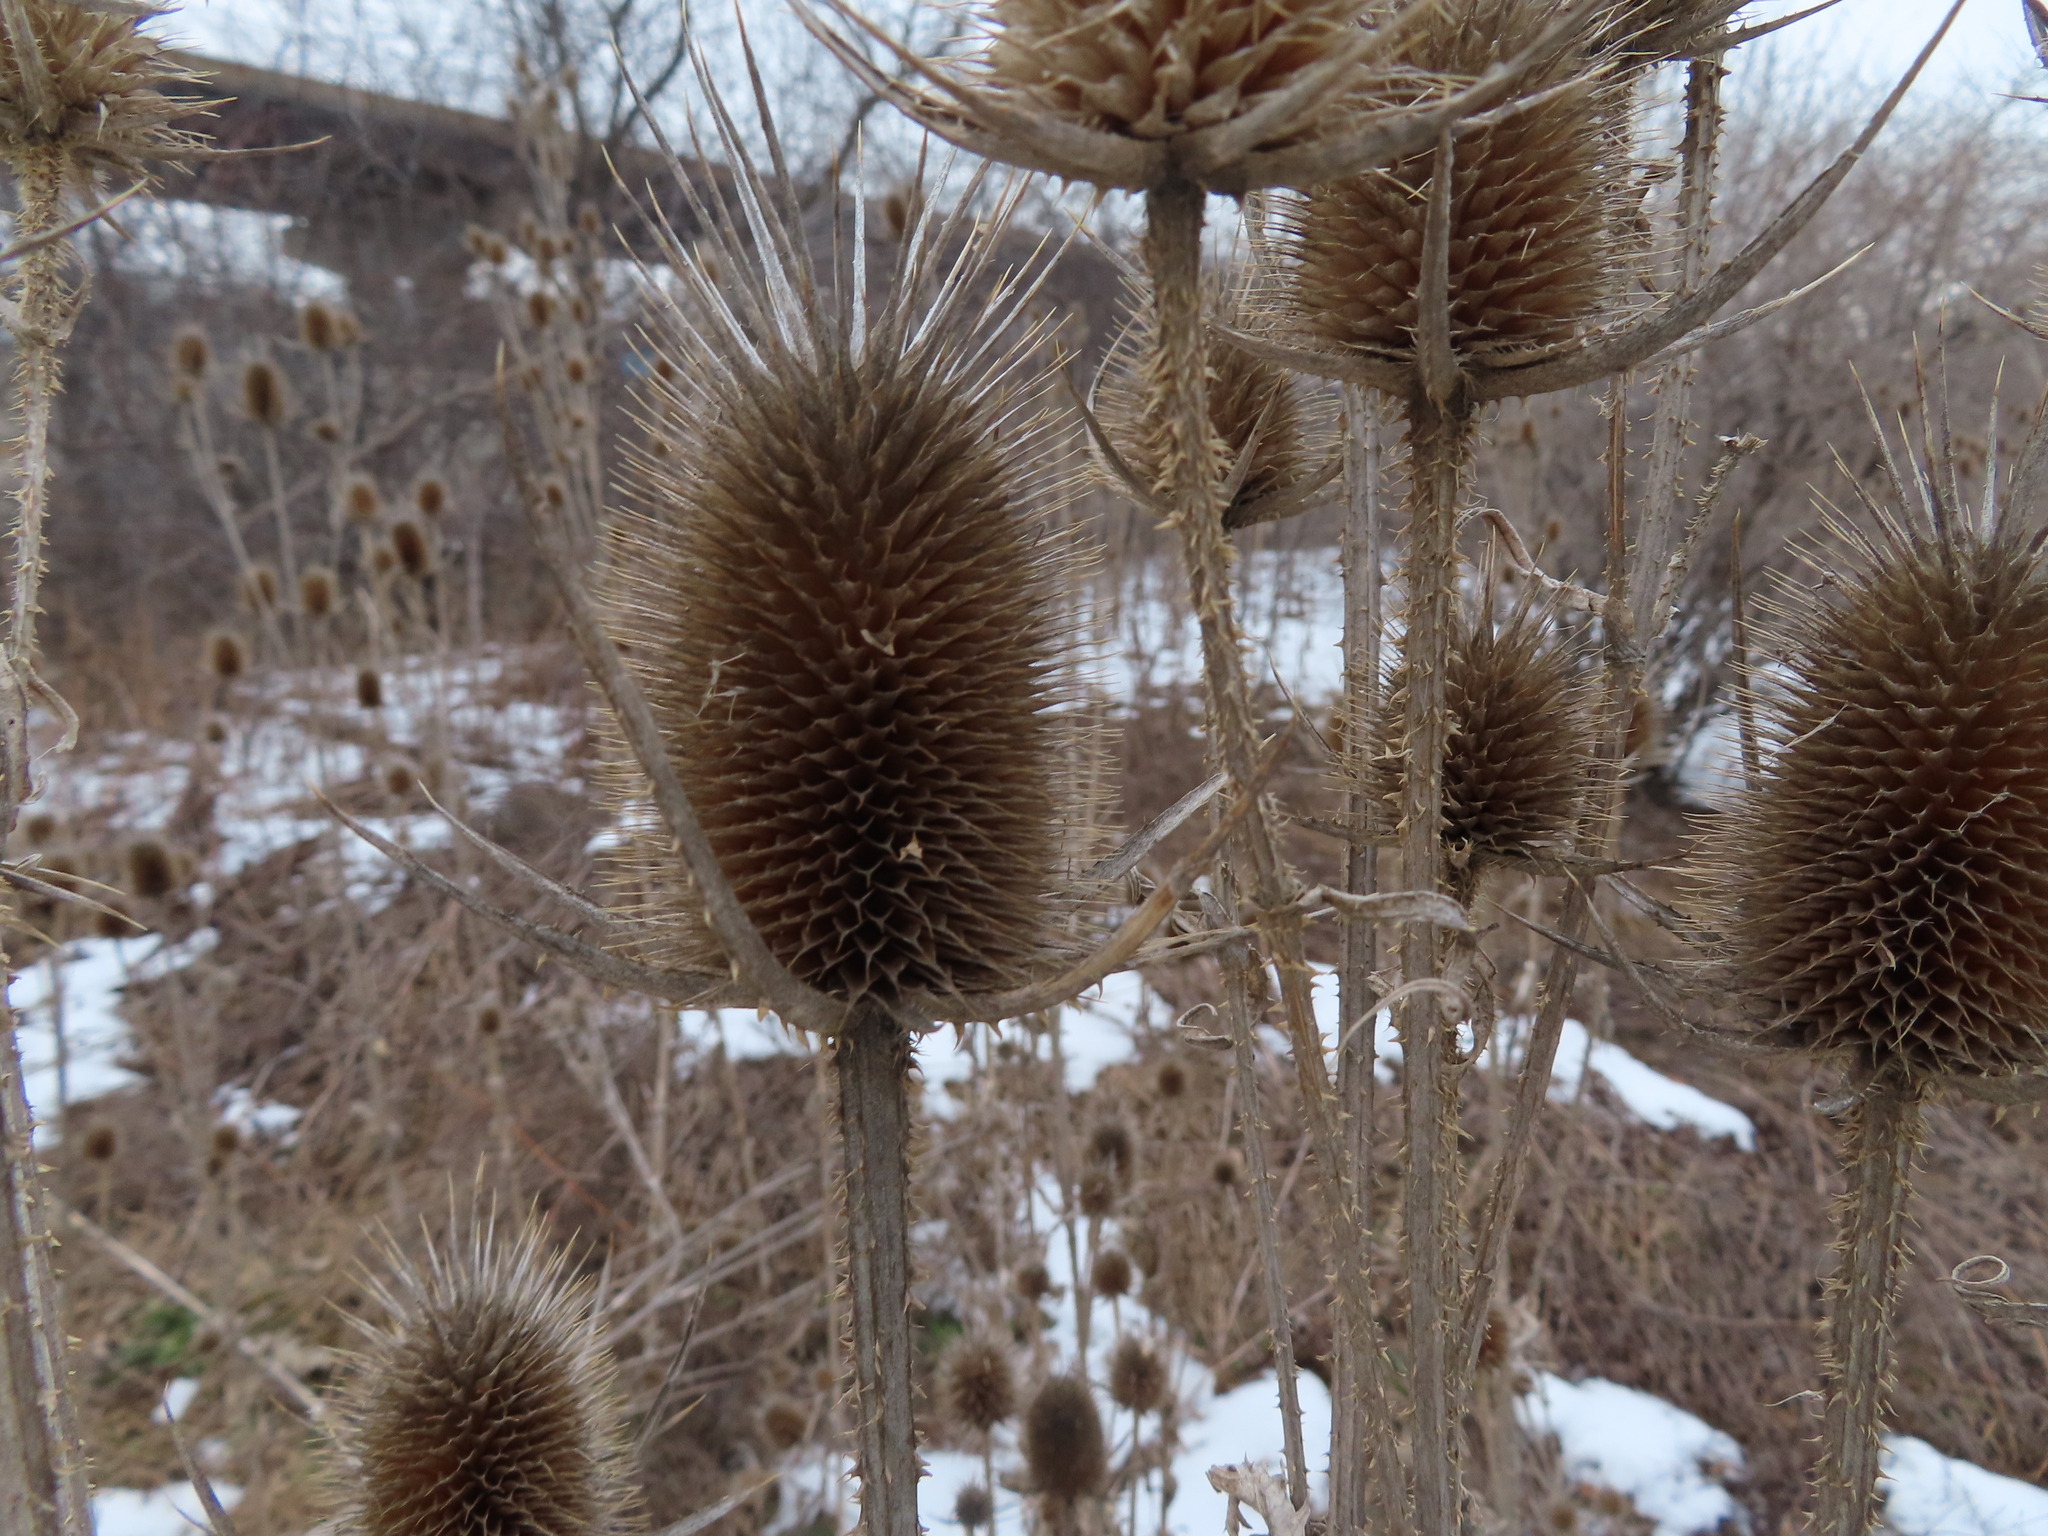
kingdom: Plantae
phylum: Tracheophyta
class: Magnoliopsida
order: Dipsacales
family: Caprifoliaceae
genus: Dipsacus
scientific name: Dipsacus laciniatus
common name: Cut-leaved teasel
